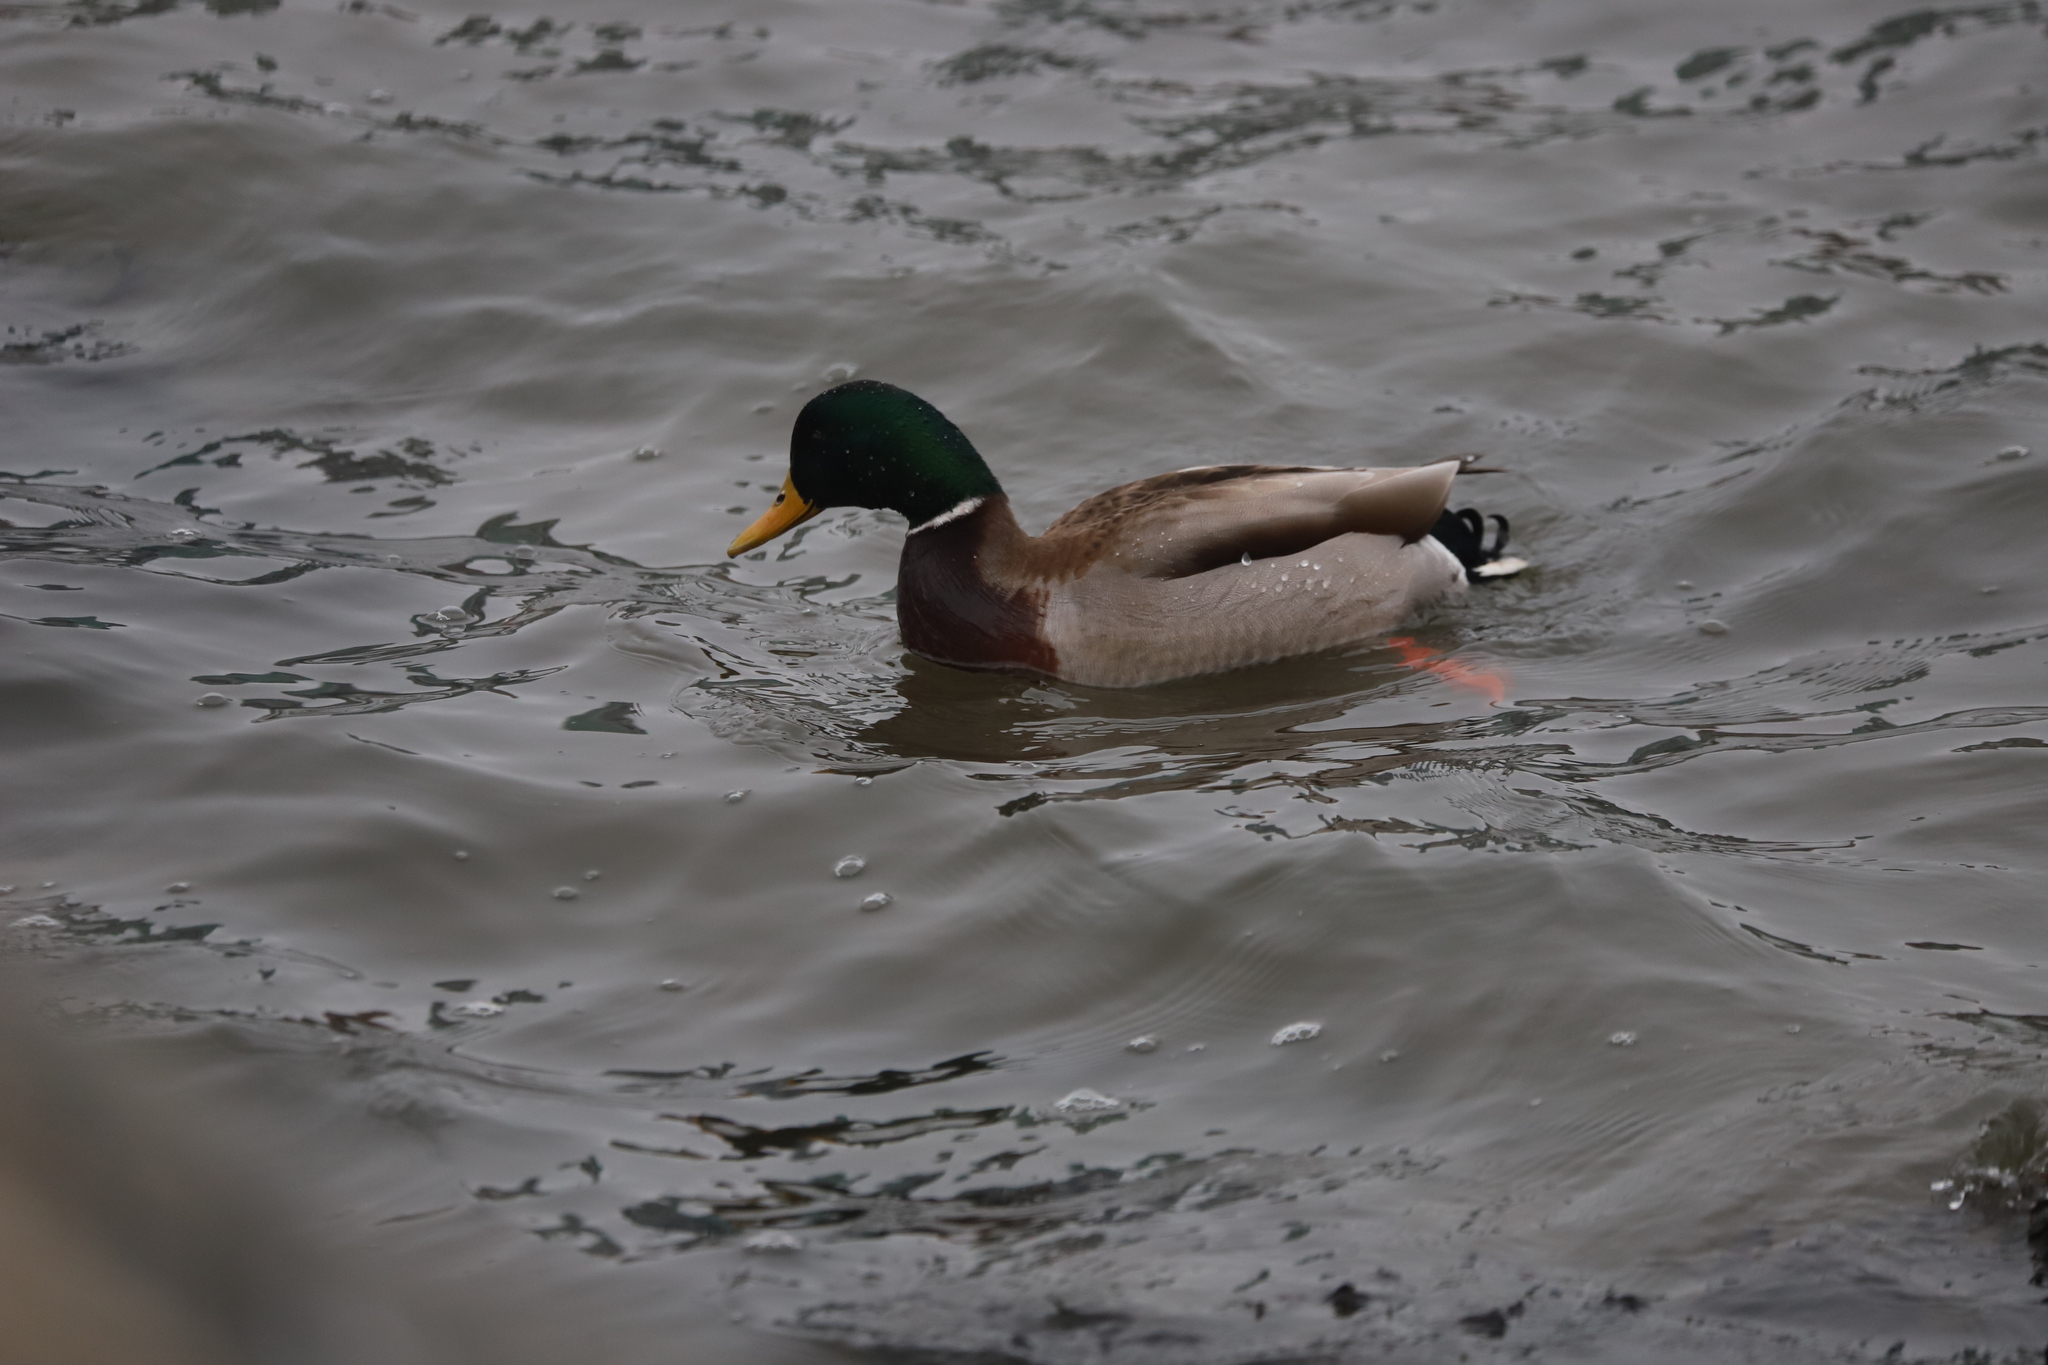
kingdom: Animalia
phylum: Chordata
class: Aves
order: Anseriformes
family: Anatidae
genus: Anas
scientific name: Anas platyrhynchos
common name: Mallard
